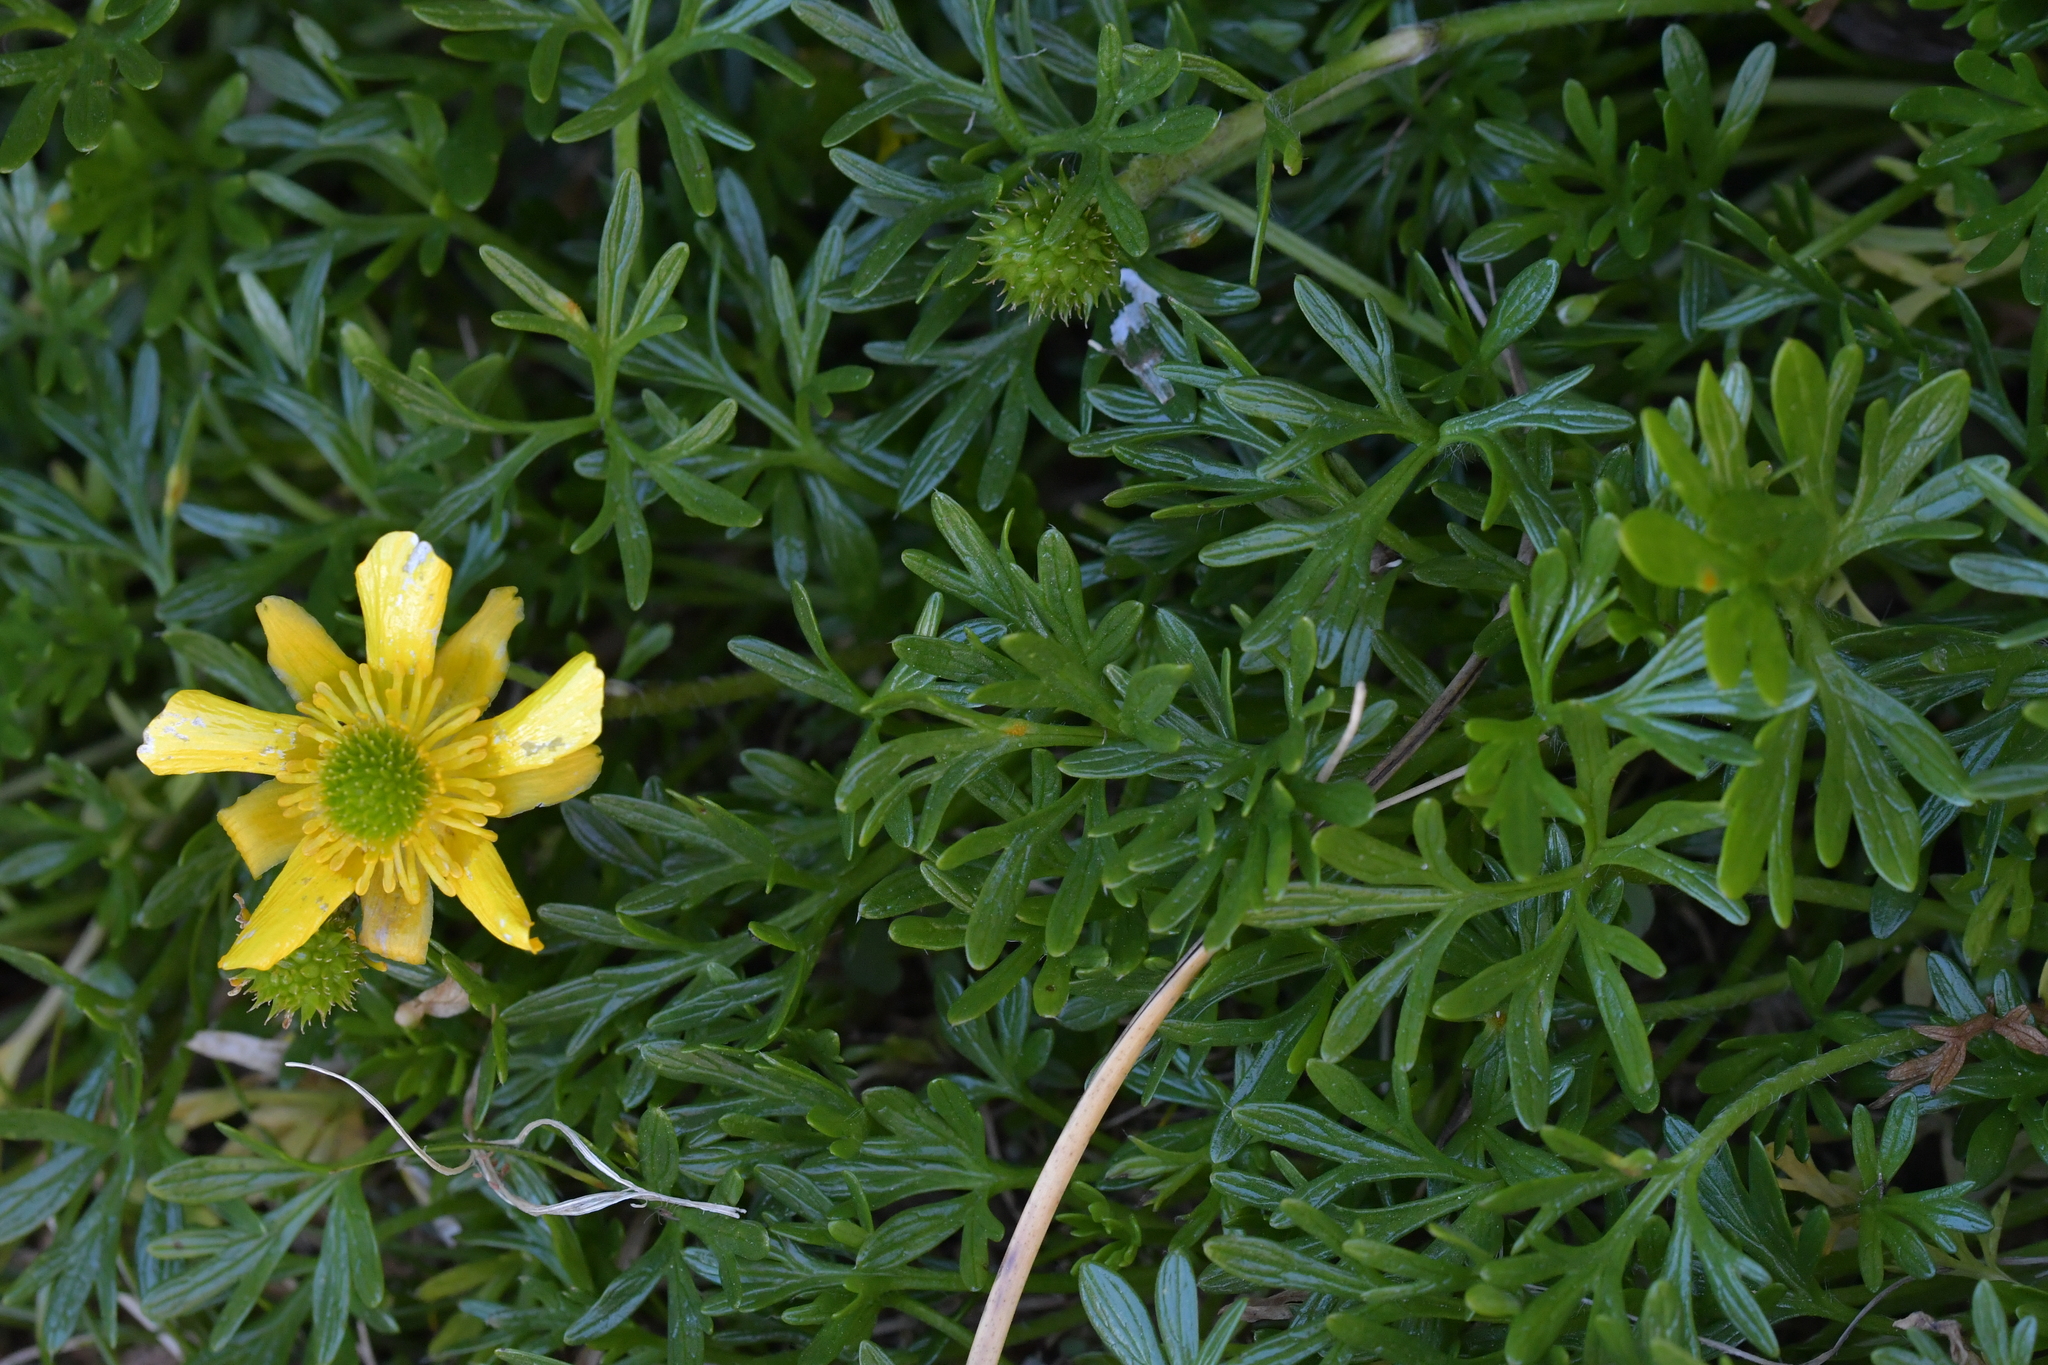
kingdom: Plantae
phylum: Tracheophyta
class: Magnoliopsida
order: Ranunculales
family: Ranunculaceae
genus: Ranunculus
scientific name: Ranunculus sericophyllus
